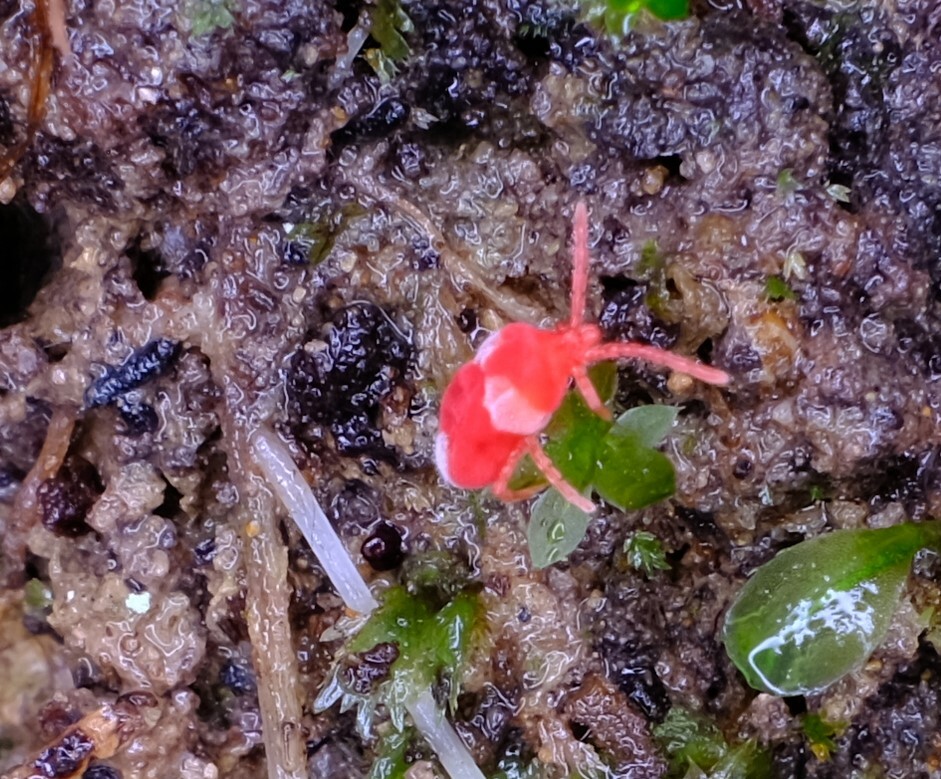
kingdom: Animalia
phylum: Arthropoda
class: Arachnida
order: Trombidiformes
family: Trombidiidae
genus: Paratrombium
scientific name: Paratrombium
